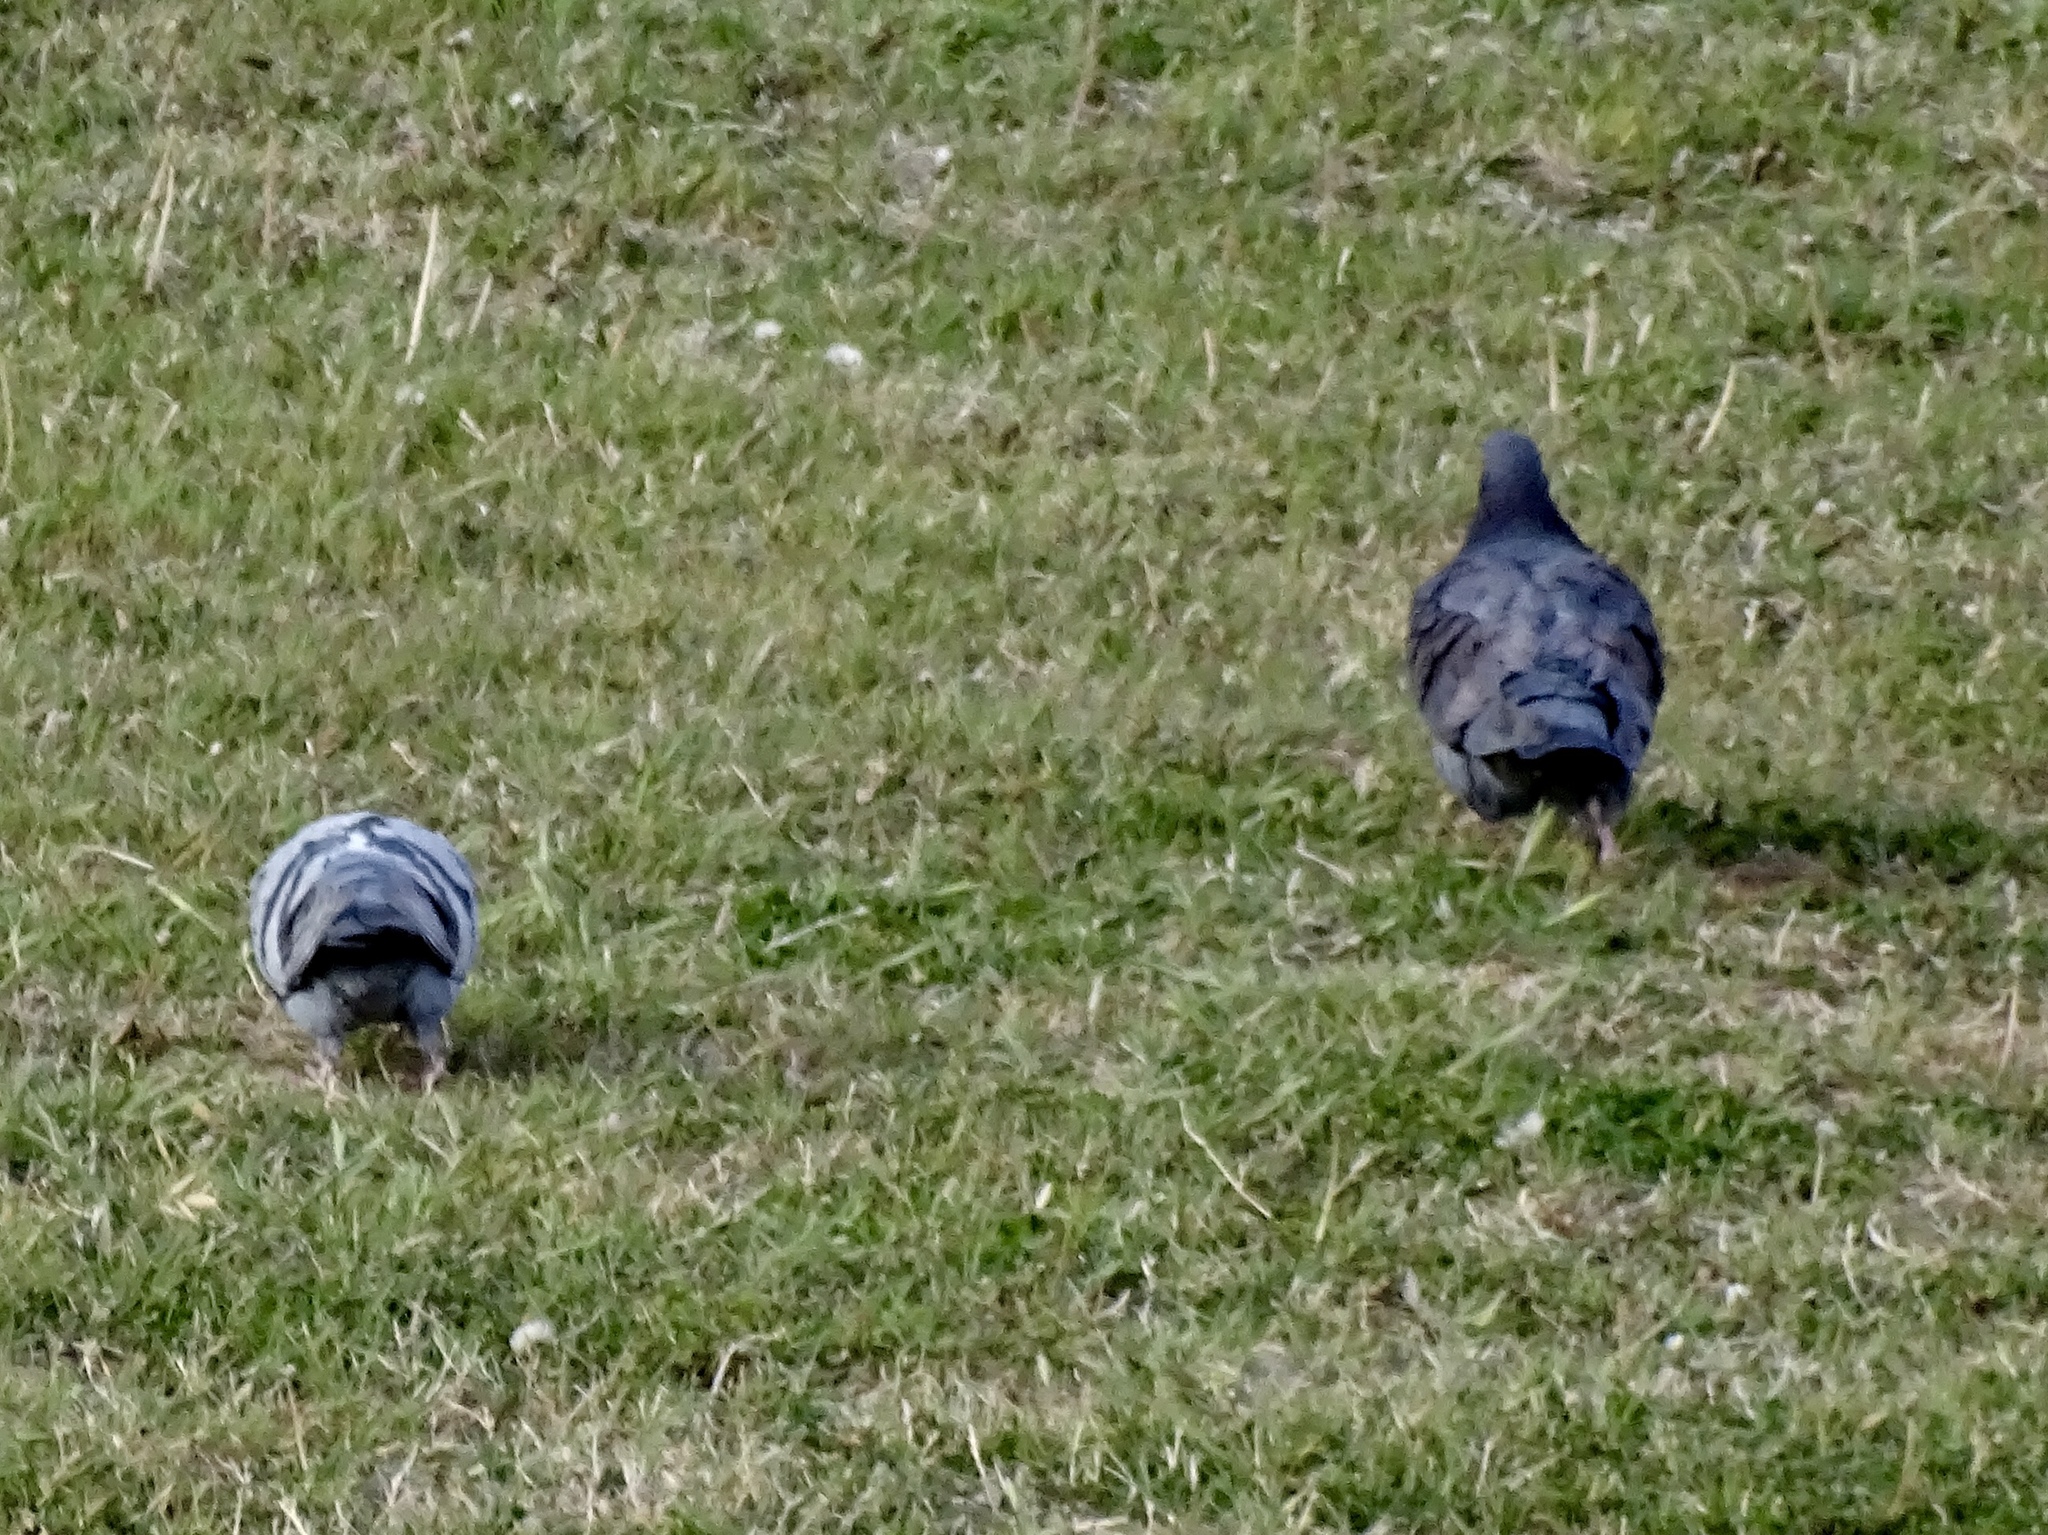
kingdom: Animalia
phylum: Chordata
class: Aves
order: Columbiformes
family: Columbidae
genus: Columba
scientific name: Columba livia
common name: Rock pigeon
